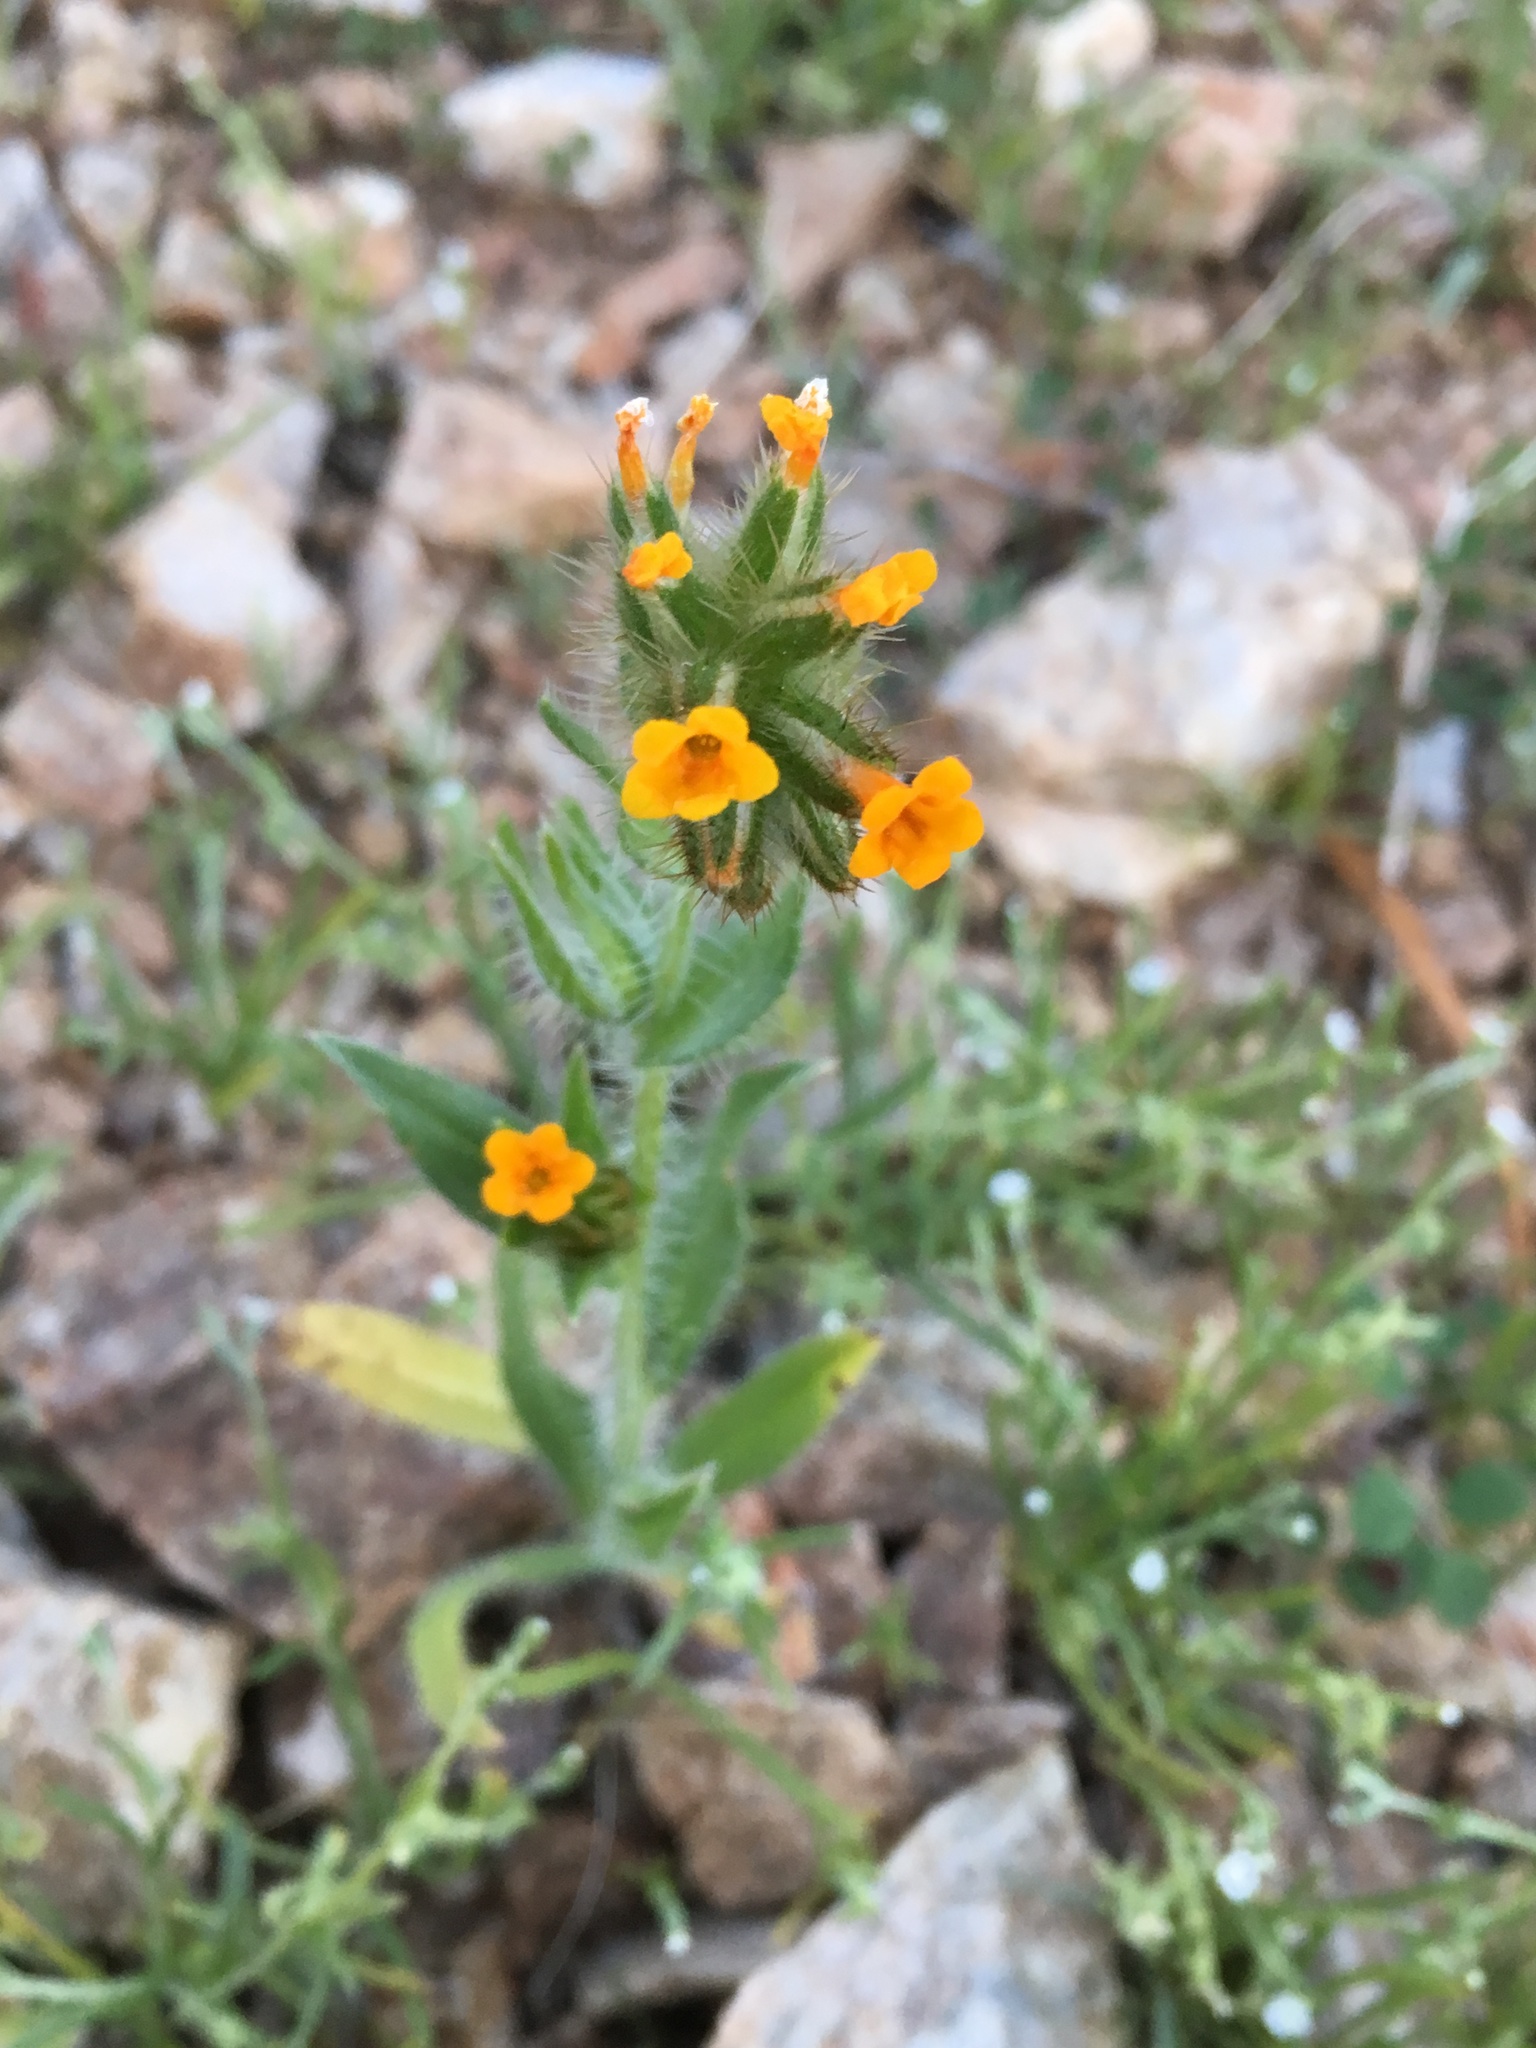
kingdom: Plantae
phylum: Tracheophyta
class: Magnoliopsida
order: Boraginales
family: Boraginaceae
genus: Amsinckia
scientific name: Amsinckia tessellata
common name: Tessellate fiddleneck
